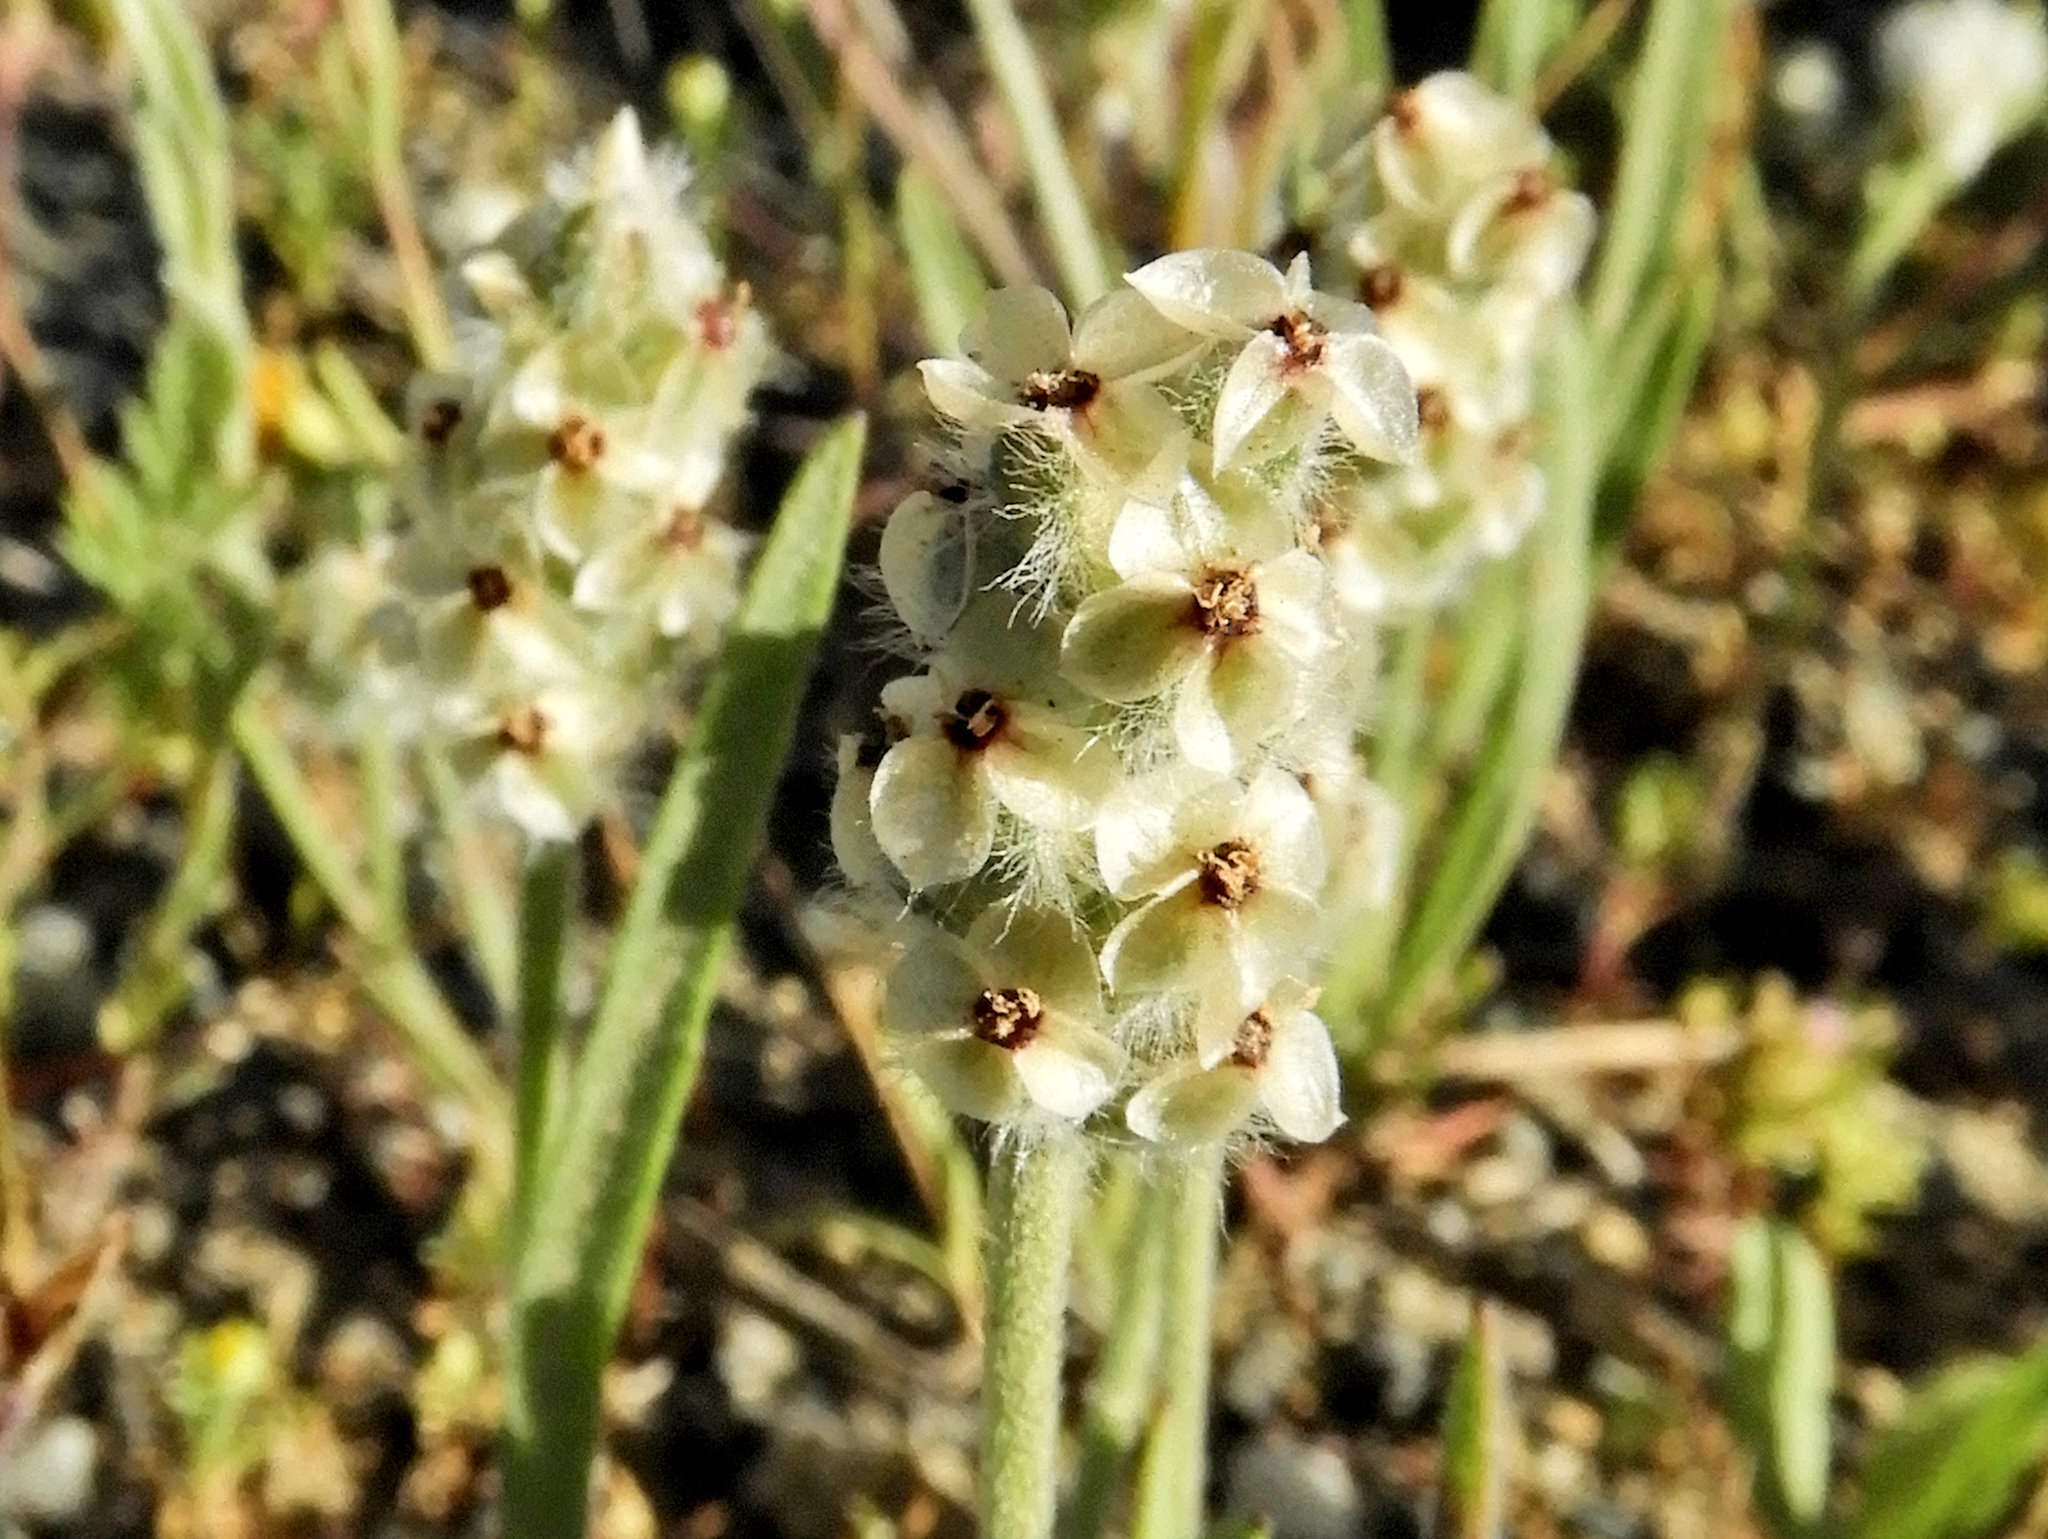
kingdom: Plantae
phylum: Tracheophyta
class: Magnoliopsida
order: Lamiales
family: Plantaginaceae
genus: Plantago
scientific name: Plantago erecta
